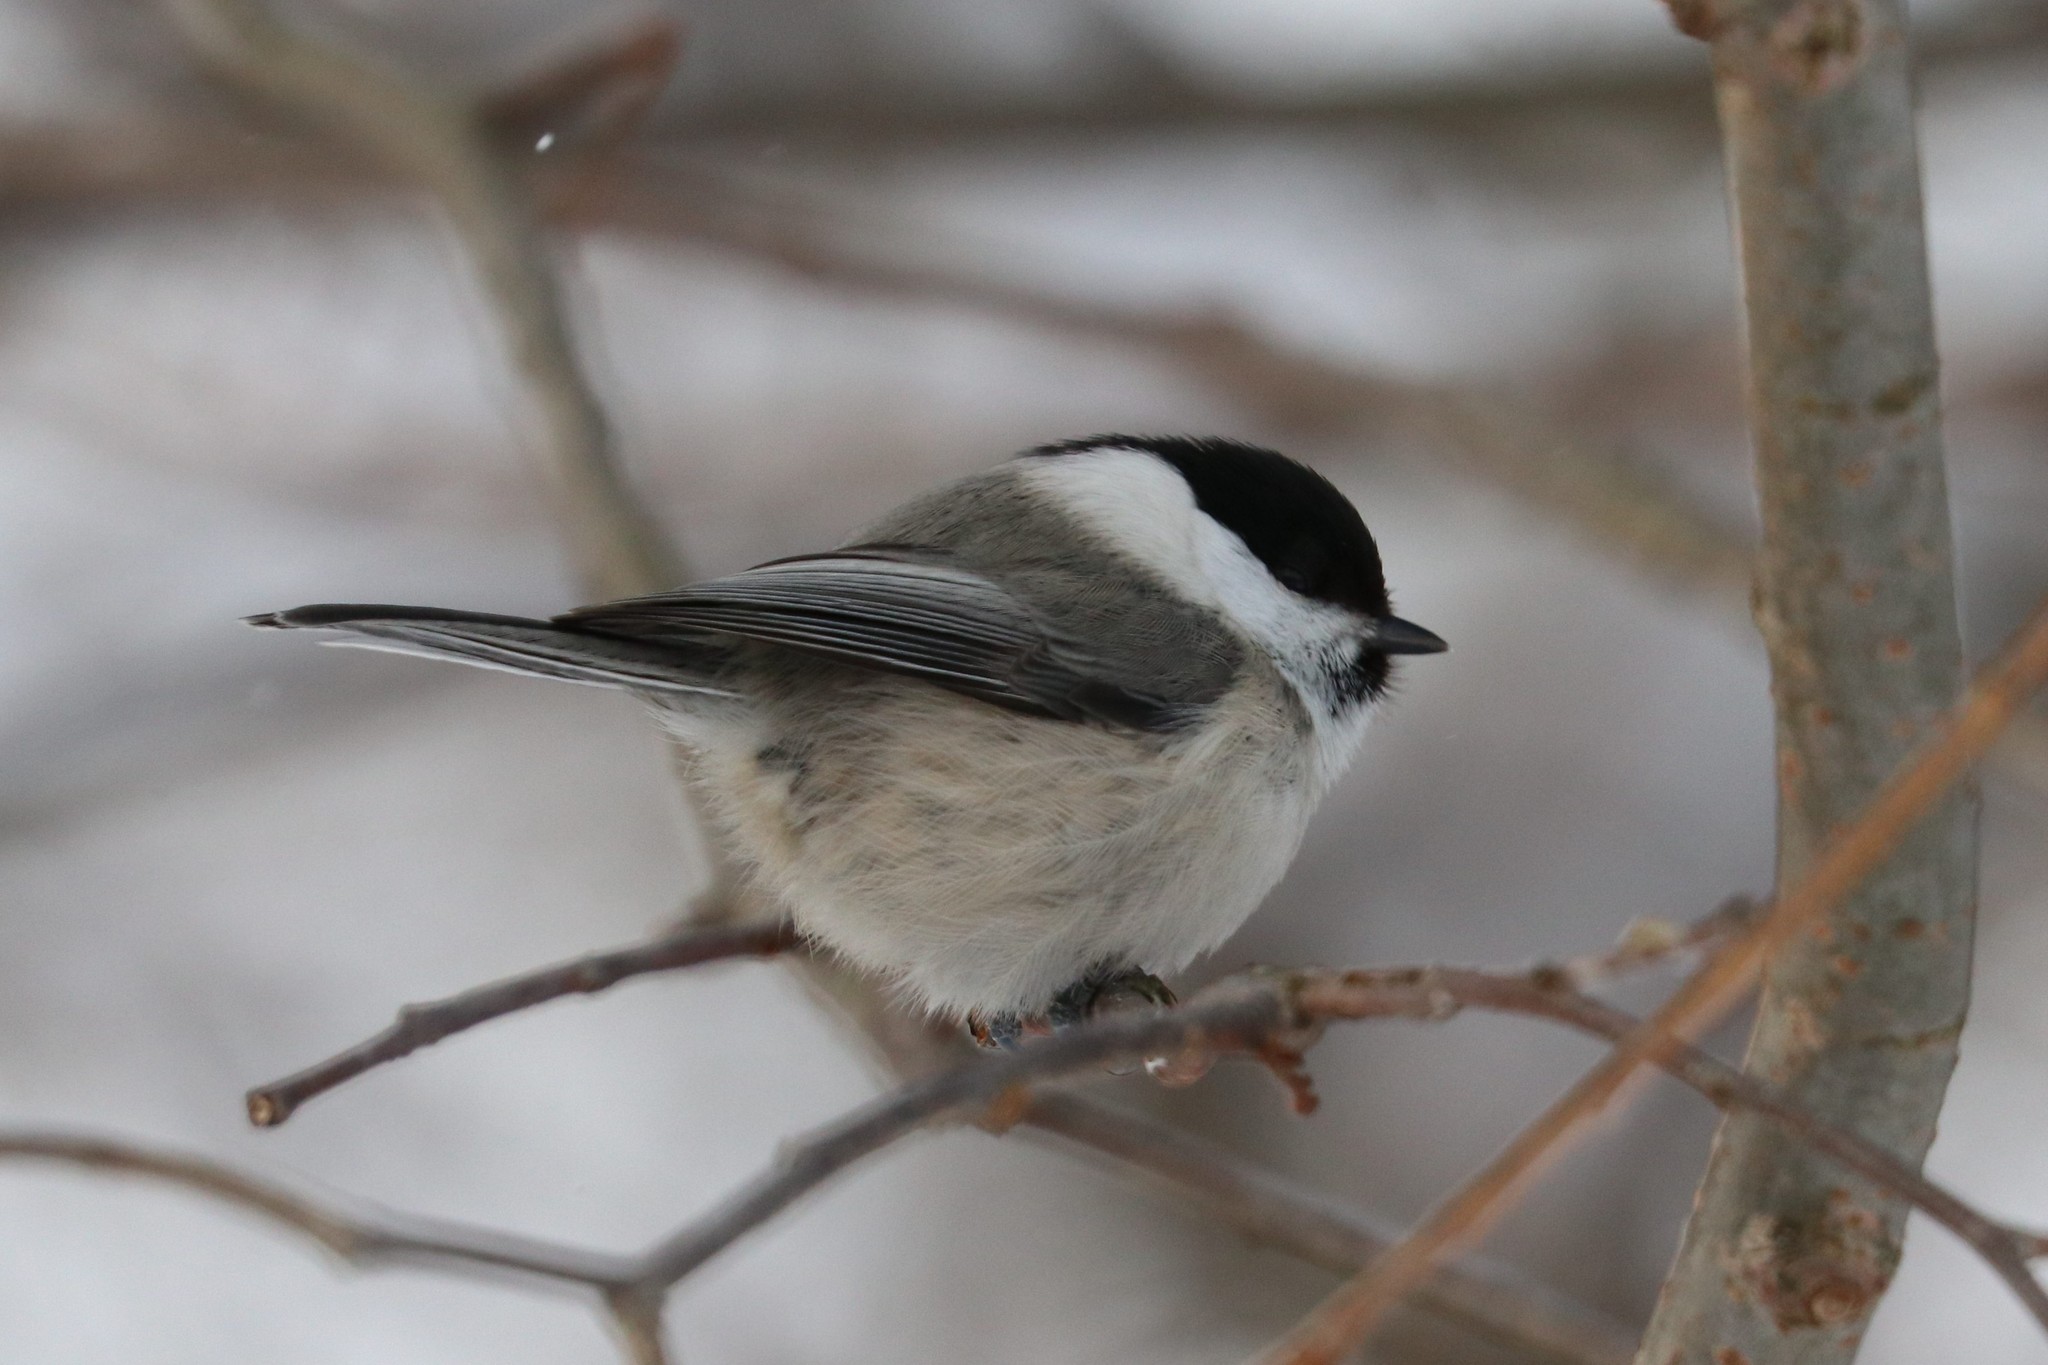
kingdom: Animalia
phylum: Chordata
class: Aves
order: Passeriformes
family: Paridae
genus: Poecile
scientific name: Poecile montanus
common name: Willow tit
